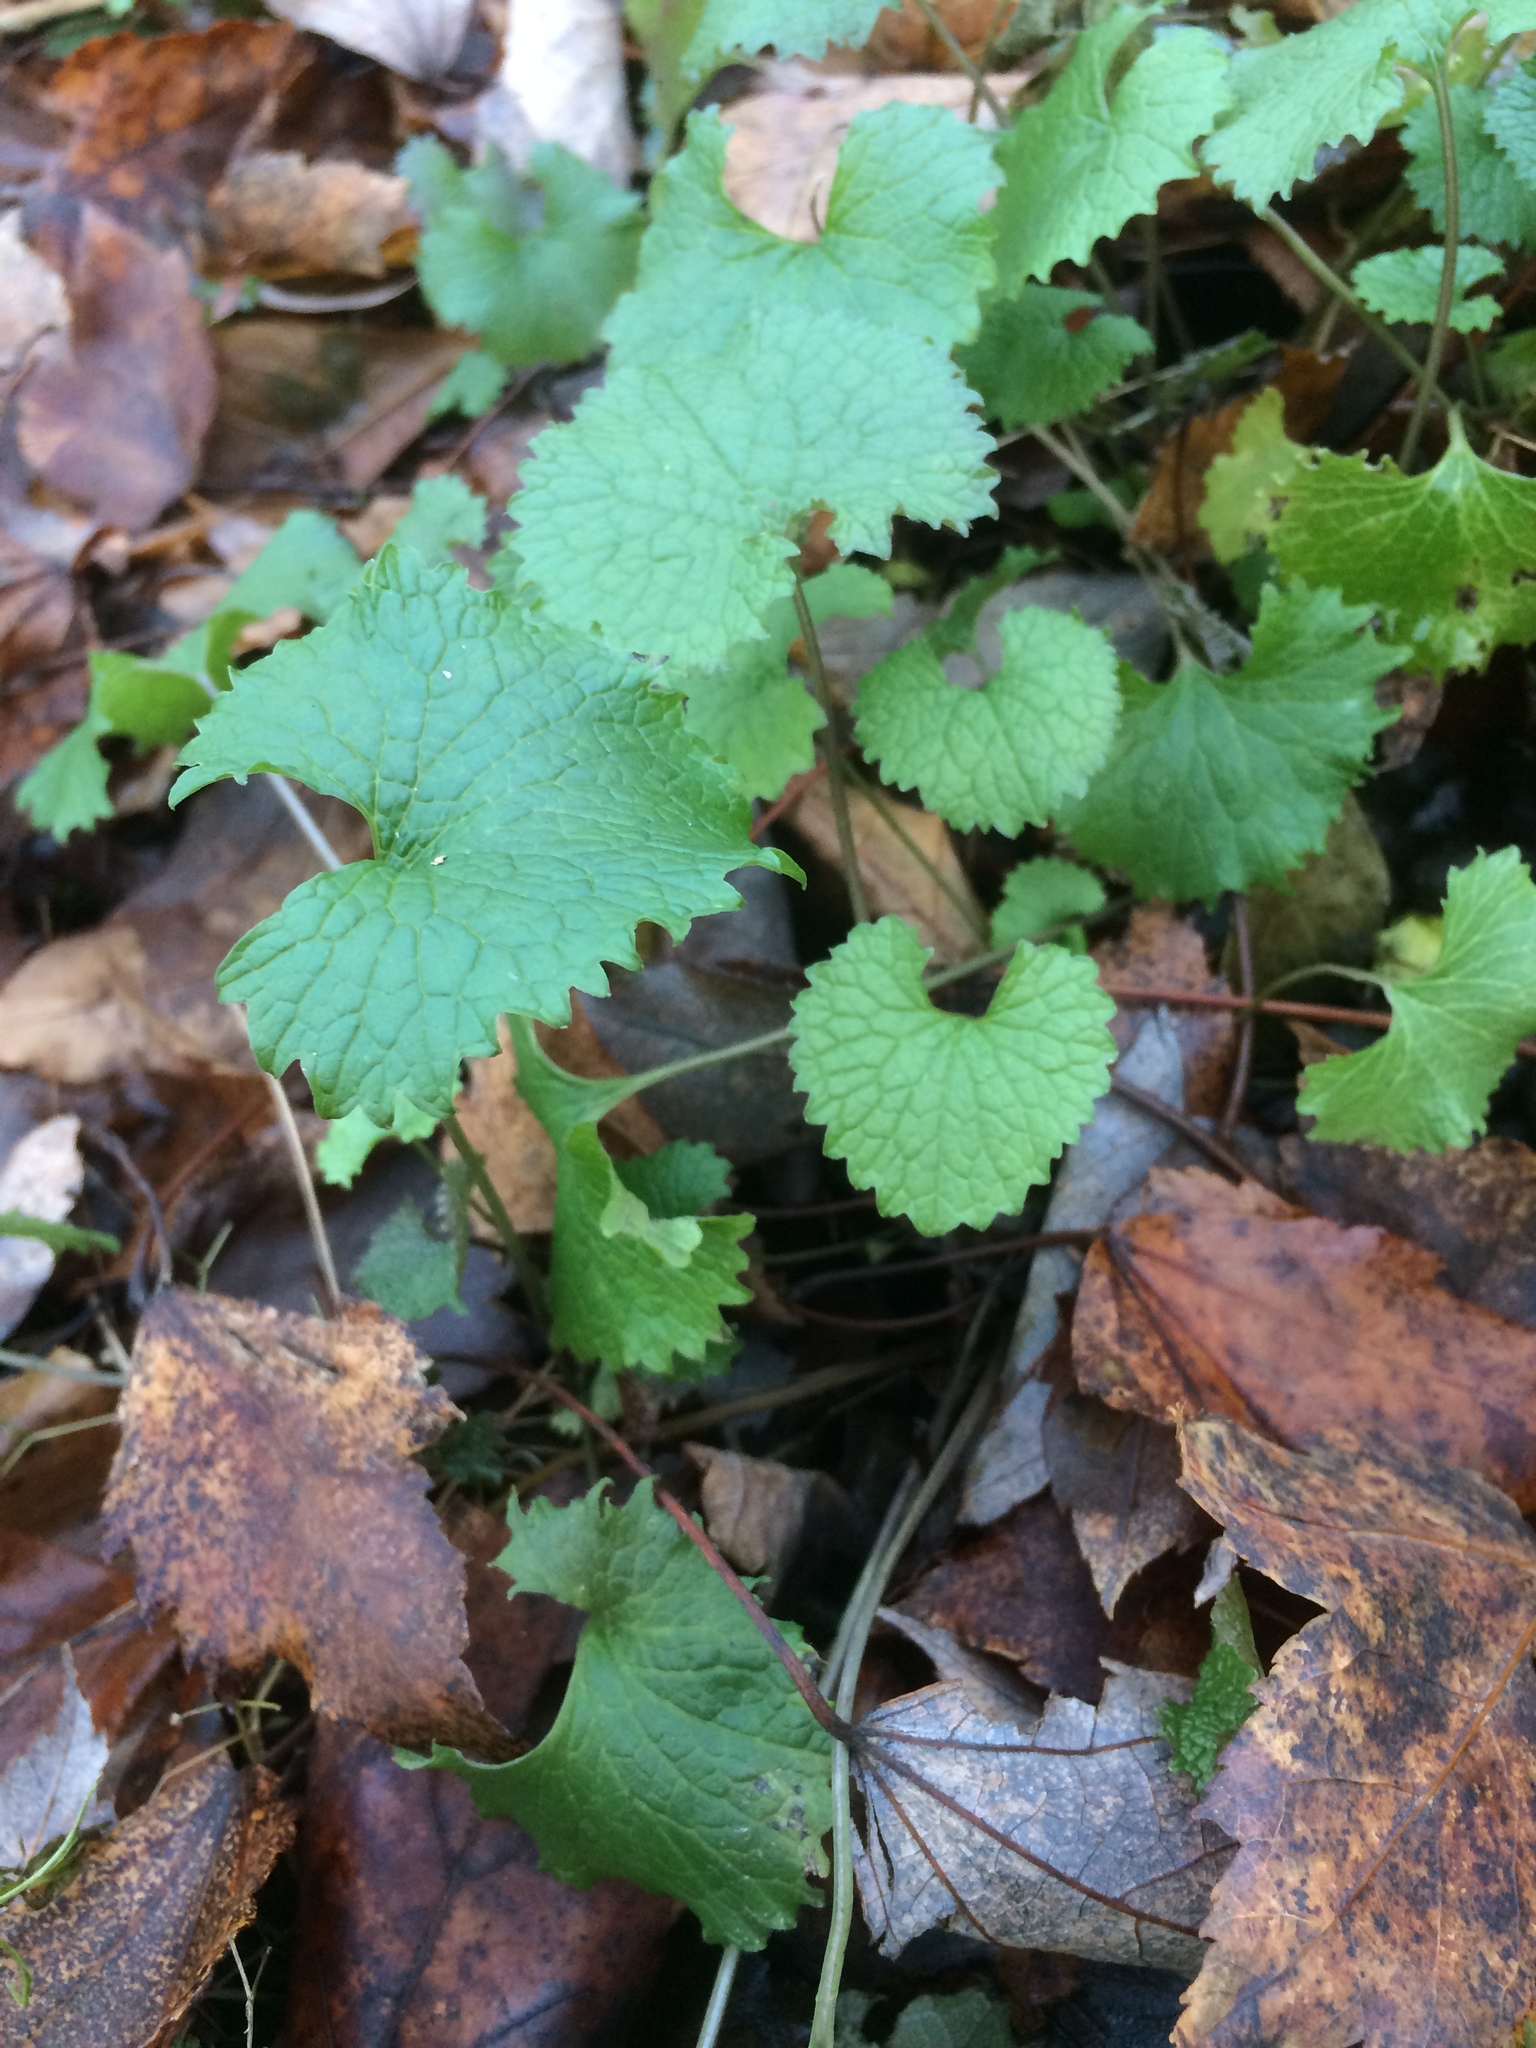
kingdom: Plantae
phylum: Tracheophyta
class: Magnoliopsida
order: Brassicales
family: Brassicaceae
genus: Alliaria
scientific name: Alliaria petiolata
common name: Garlic mustard
